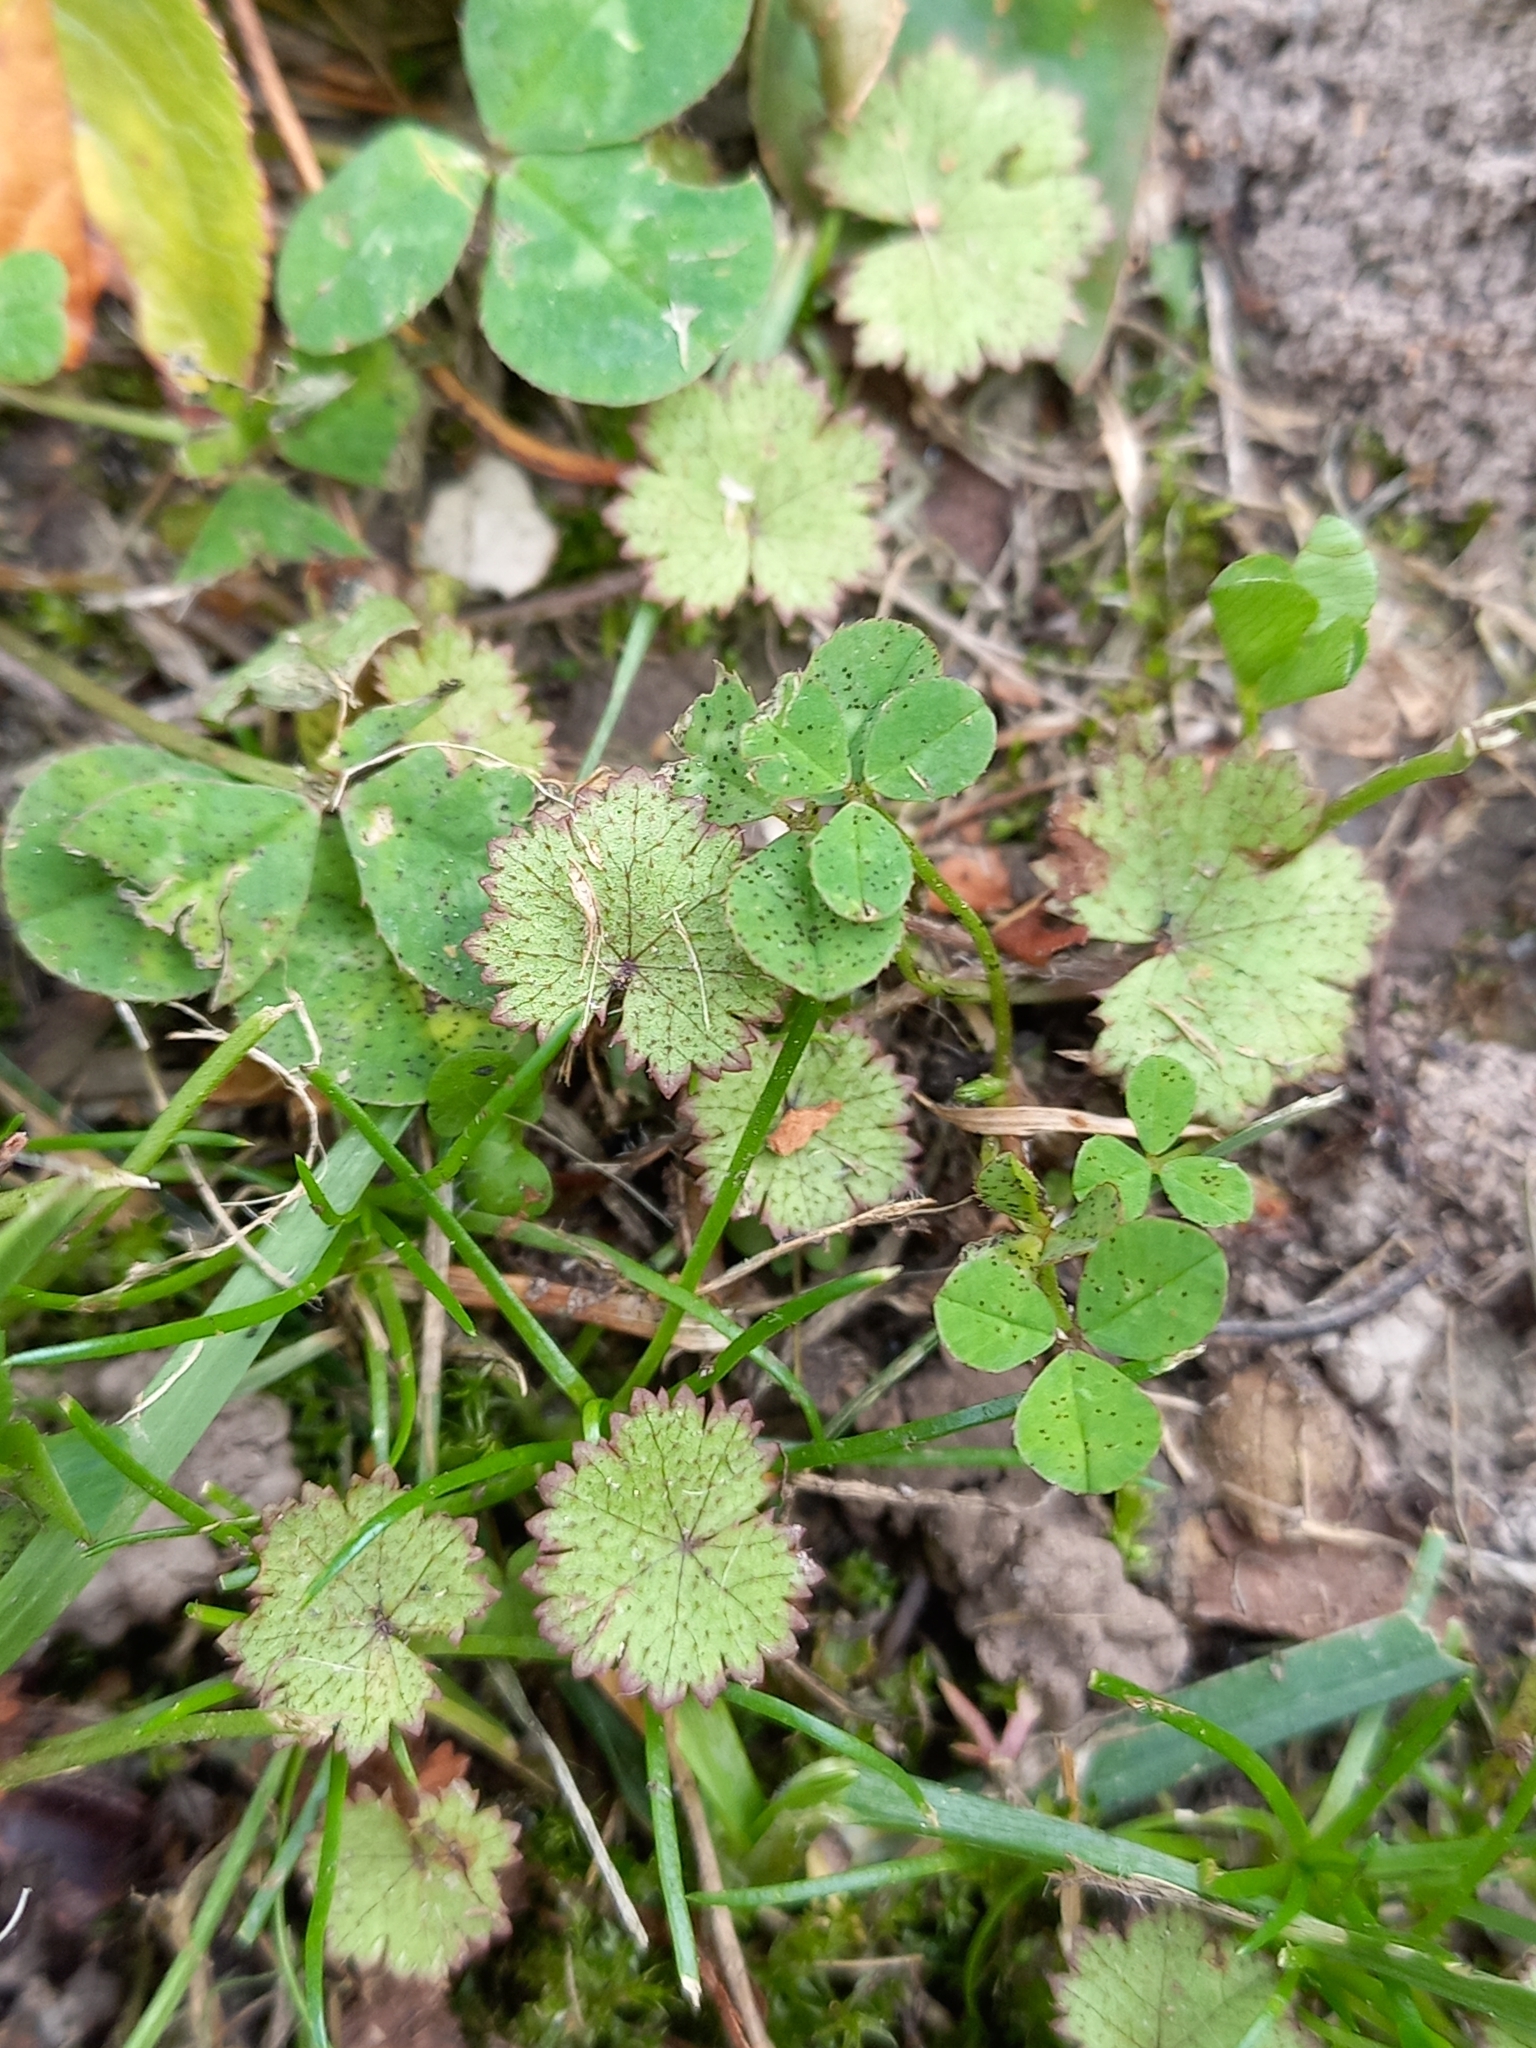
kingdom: Plantae
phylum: Tracheophyta
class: Magnoliopsida
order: Apiales
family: Araliaceae
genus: Hydrocotyle
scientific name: Hydrocotyle moschata
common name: Hairy pennywort
